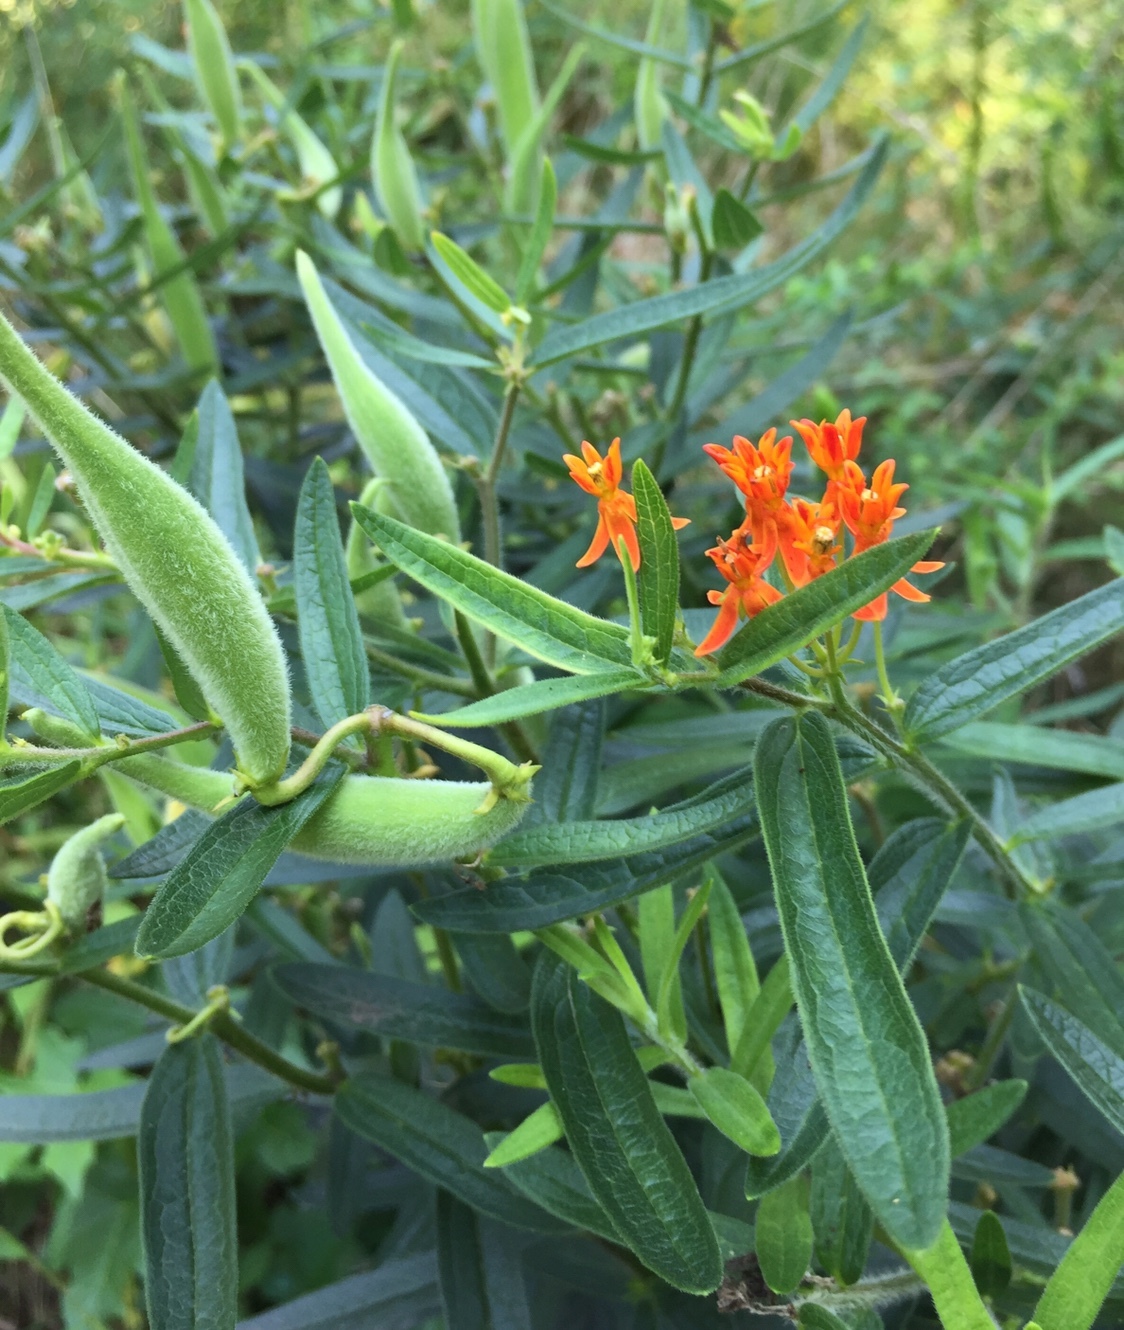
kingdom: Plantae
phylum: Tracheophyta
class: Magnoliopsida
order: Gentianales
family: Apocynaceae
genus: Asclepias
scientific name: Asclepias tuberosa
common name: Butterfly milkweed
